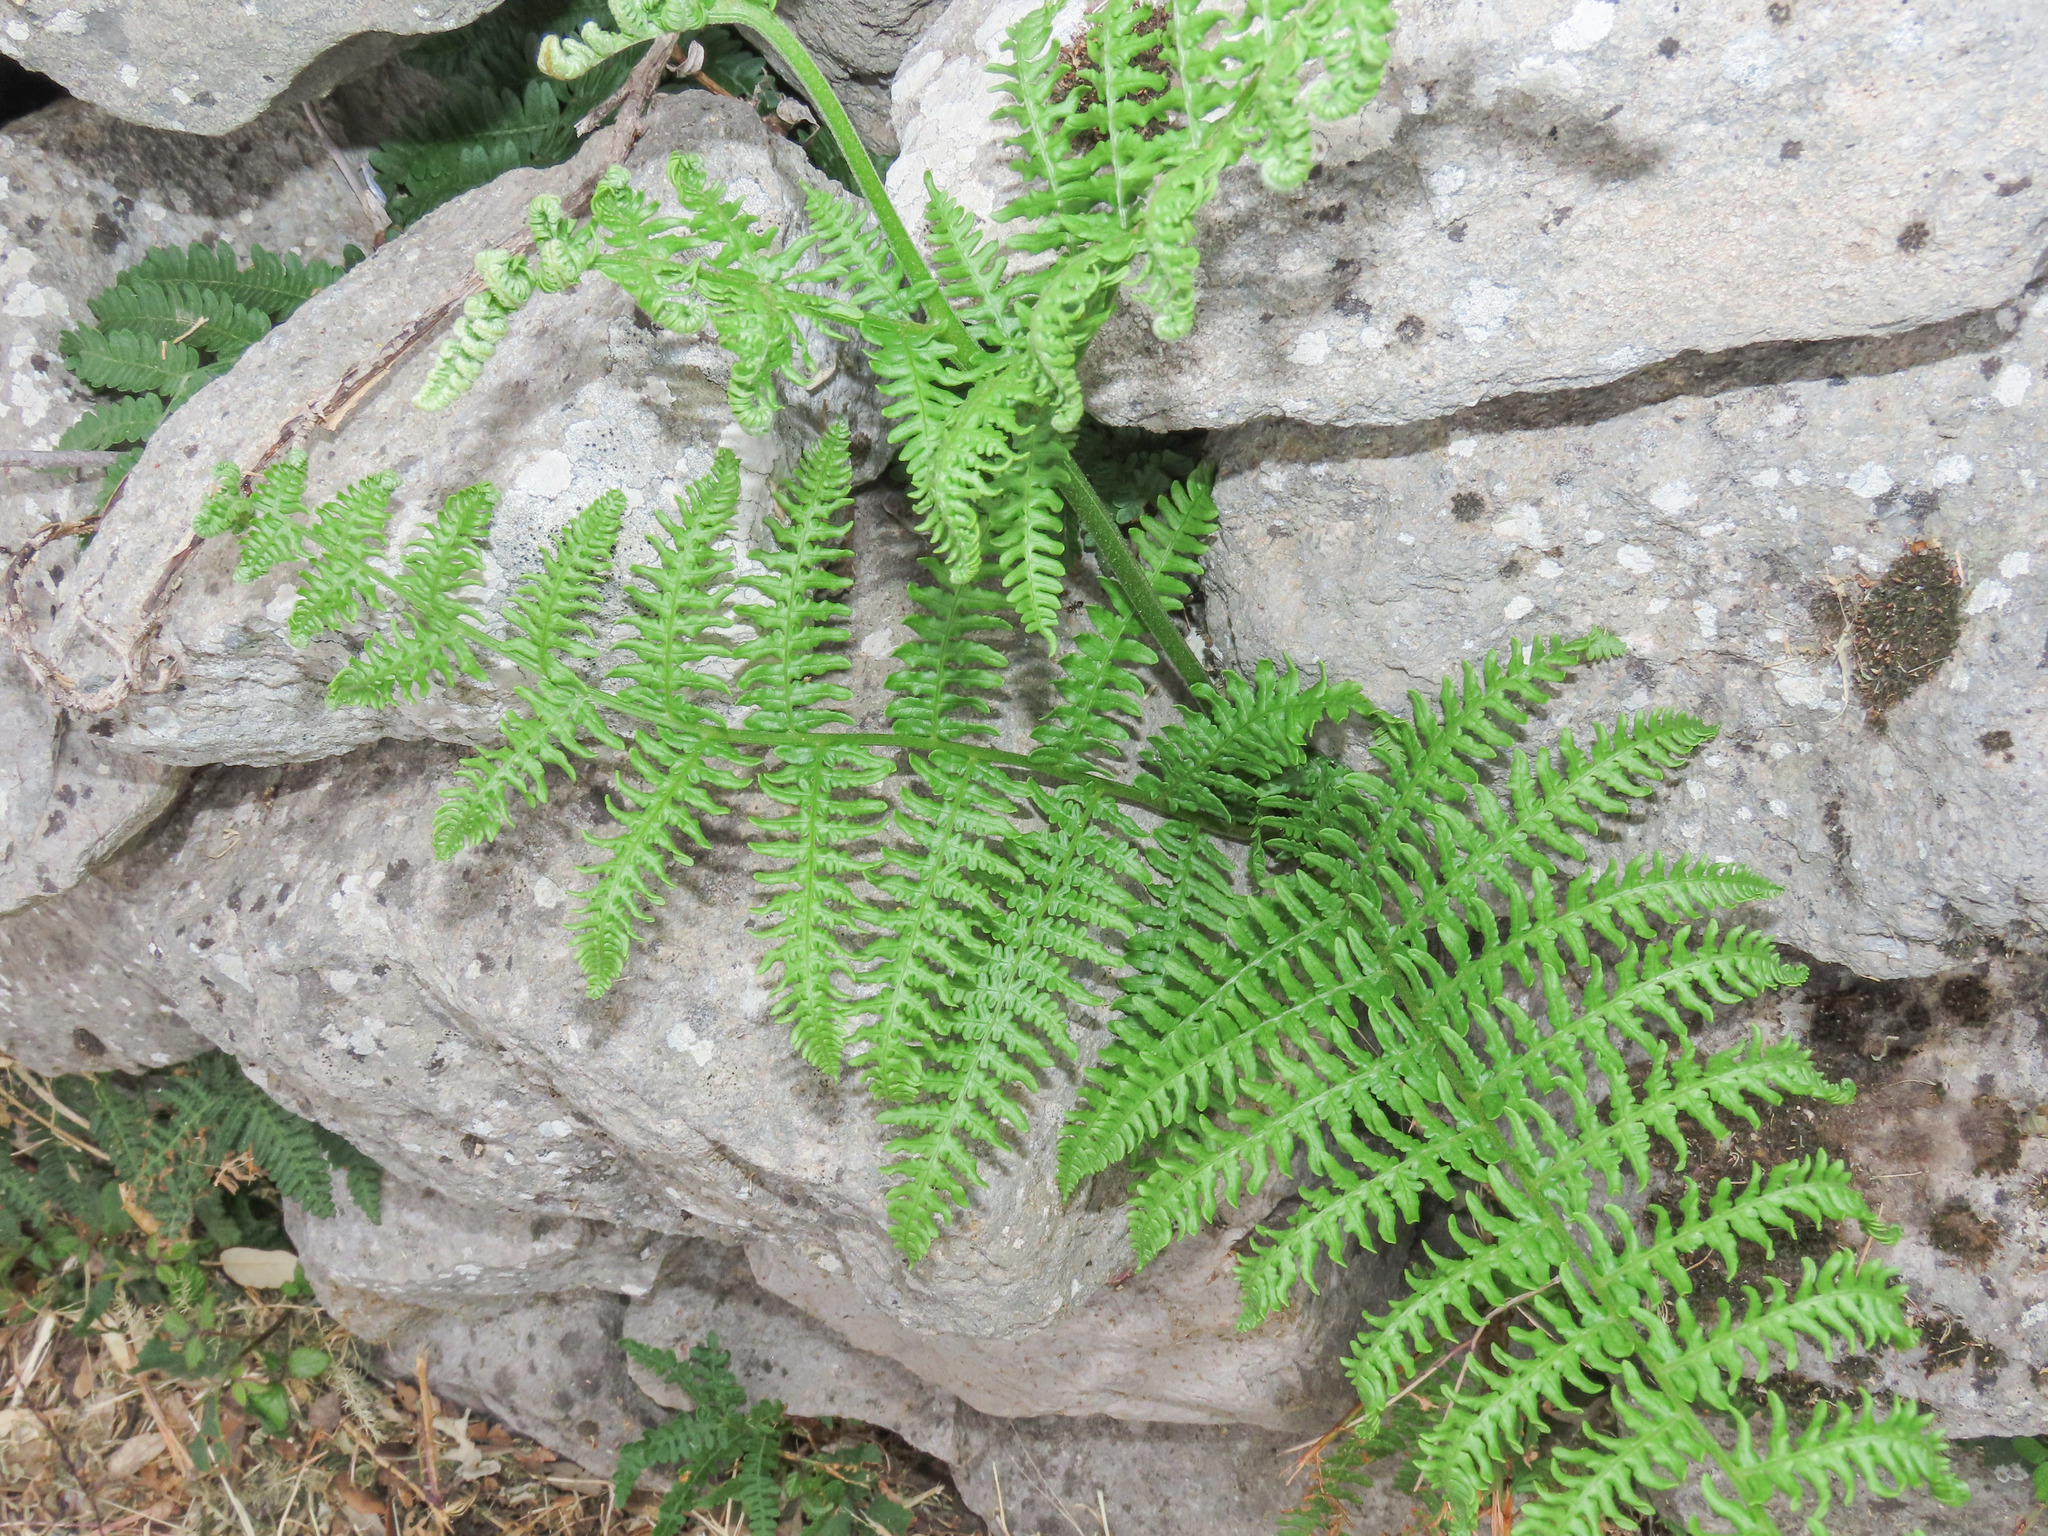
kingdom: Plantae
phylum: Tracheophyta
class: Polypodiopsida
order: Polypodiales
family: Dennstaedtiaceae
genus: Pteridium
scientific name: Pteridium aquilinum
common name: Bracken
